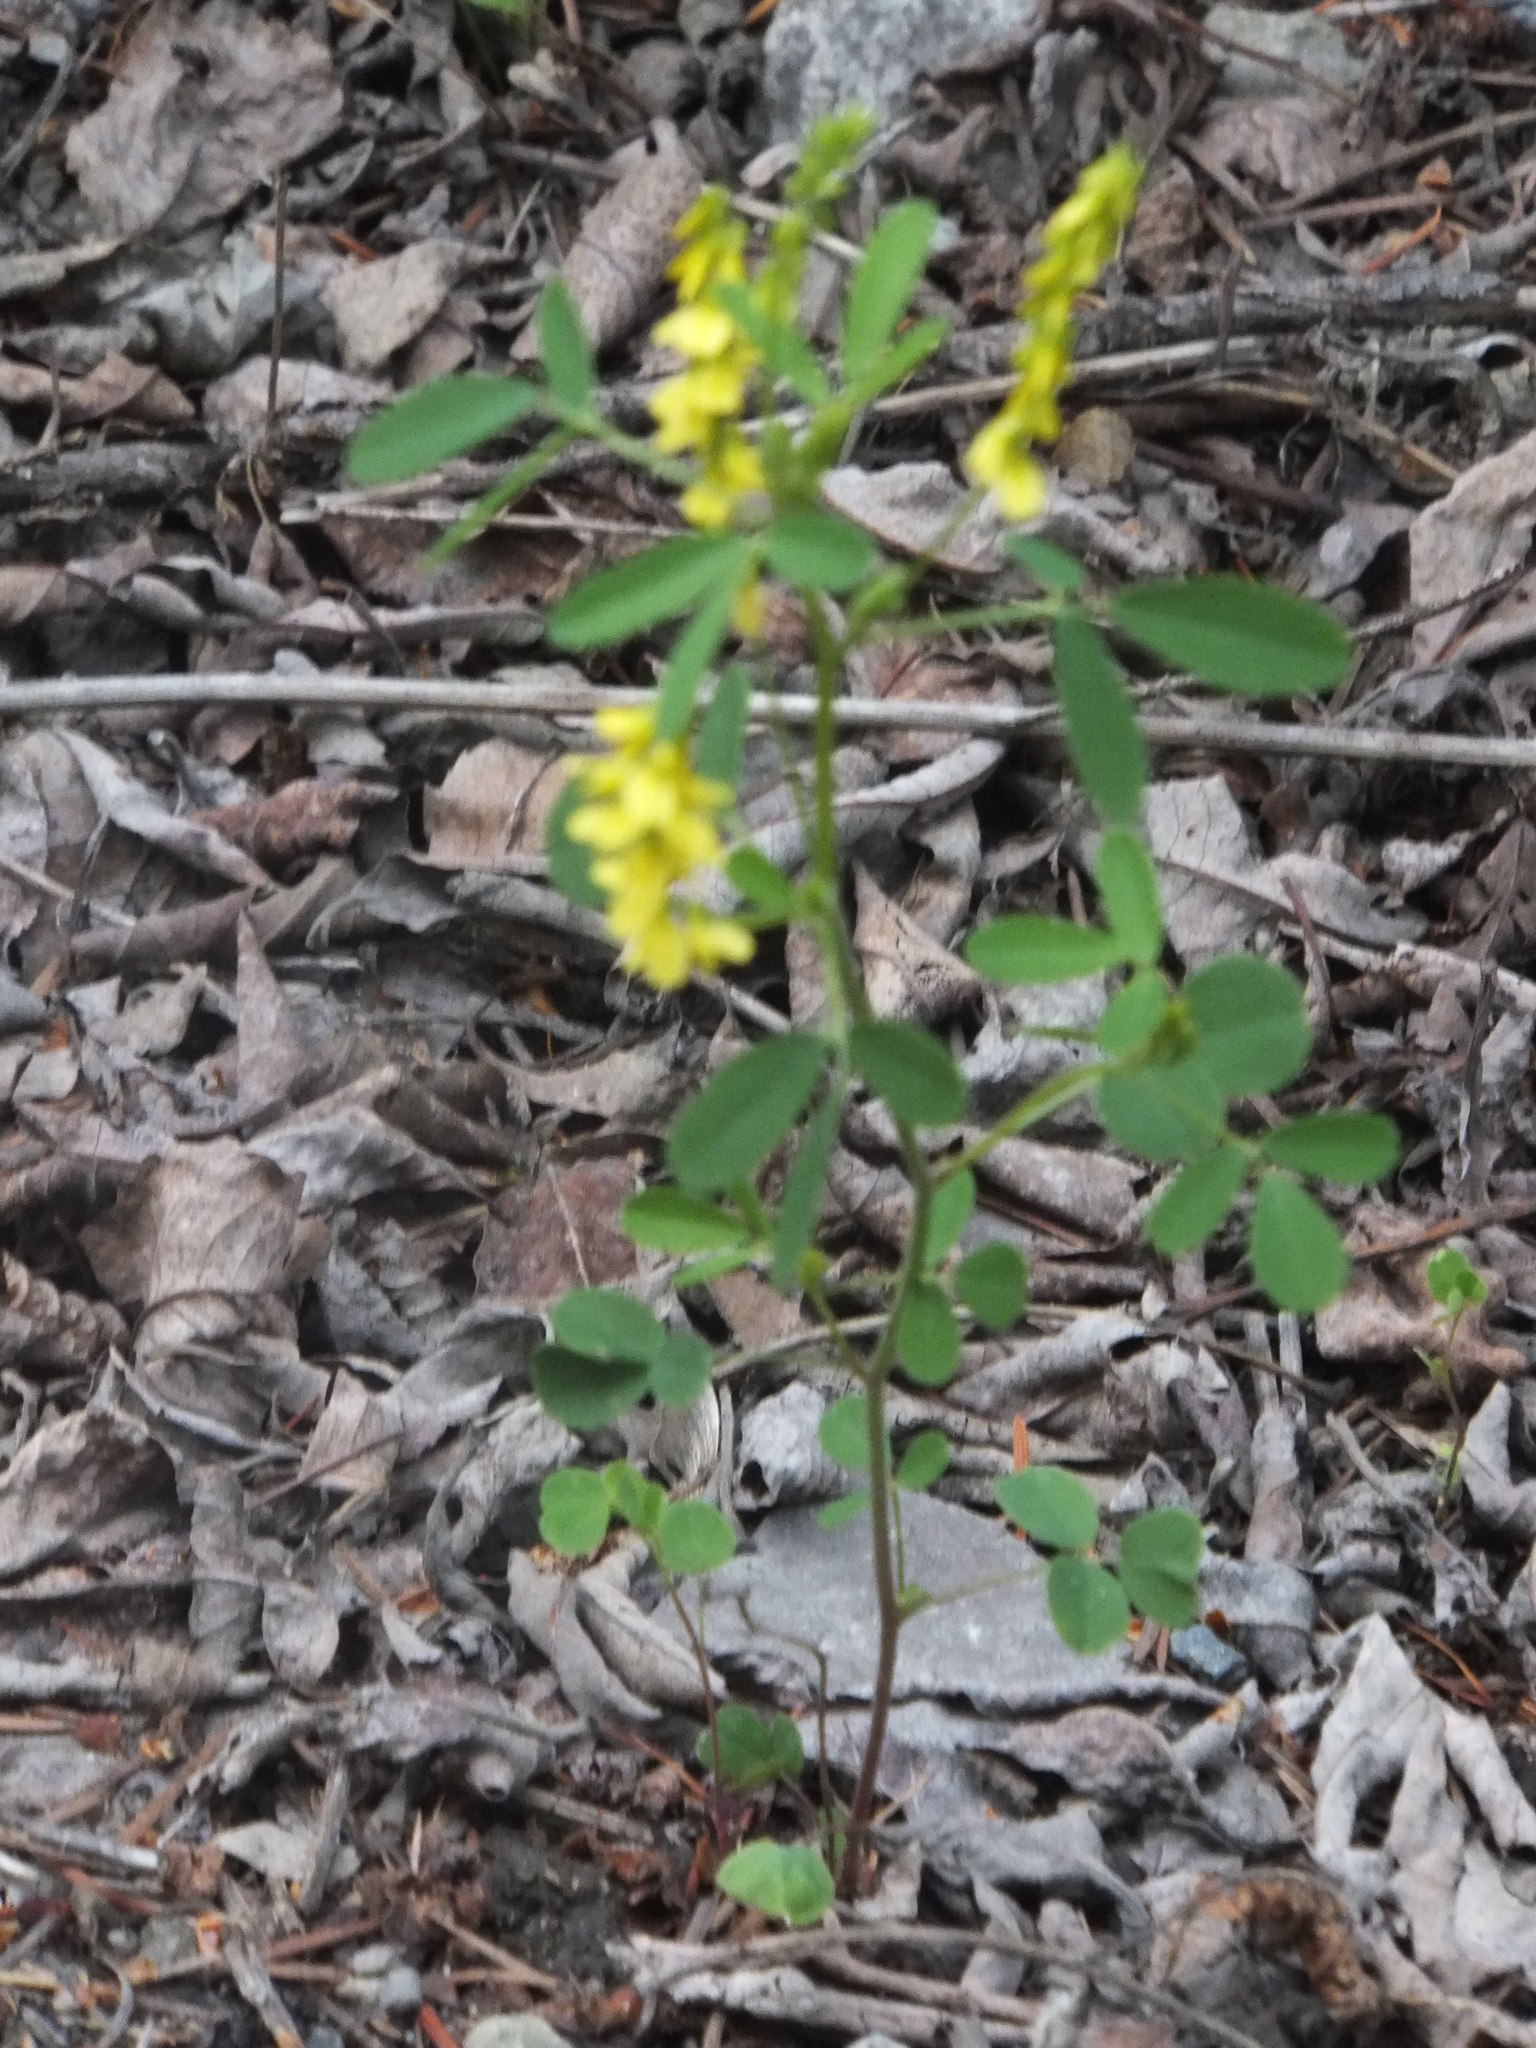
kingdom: Plantae
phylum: Tracheophyta
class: Magnoliopsida
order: Fabales
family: Fabaceae
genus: Melilotus
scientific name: Melilotus officinalis
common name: Sweetclover
